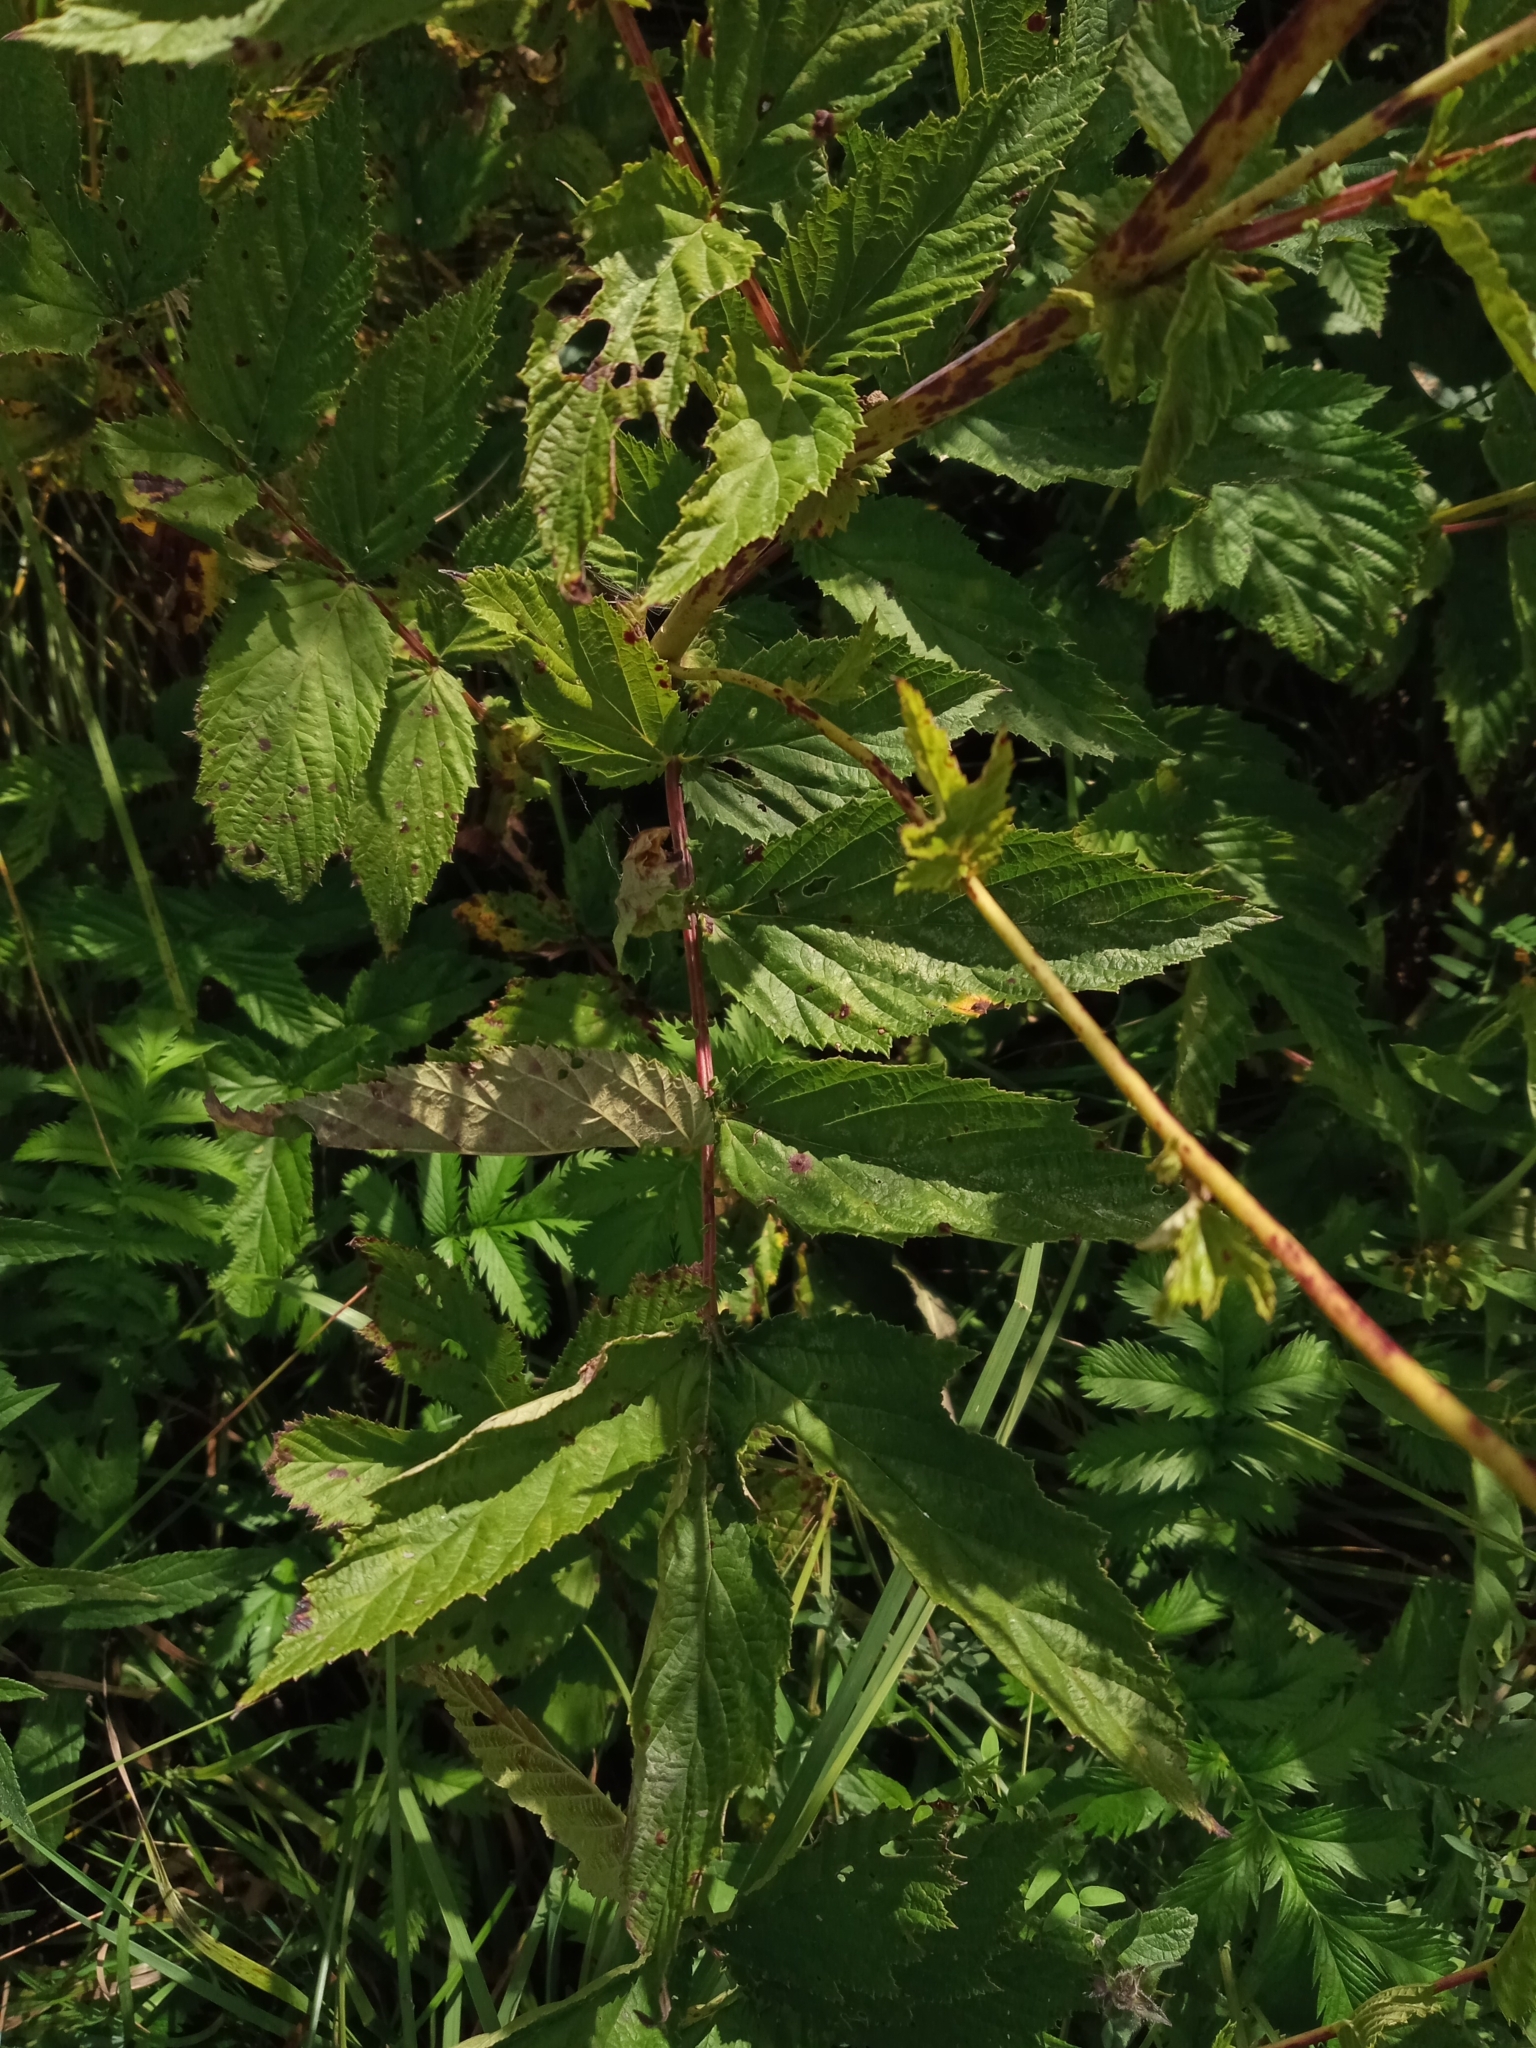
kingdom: Plantae
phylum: Tracheophyta
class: Magnoliopsida
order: Rosales
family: Rosaceae
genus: Filipendula
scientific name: Filipendula ulmaria
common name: Meadowsweet
